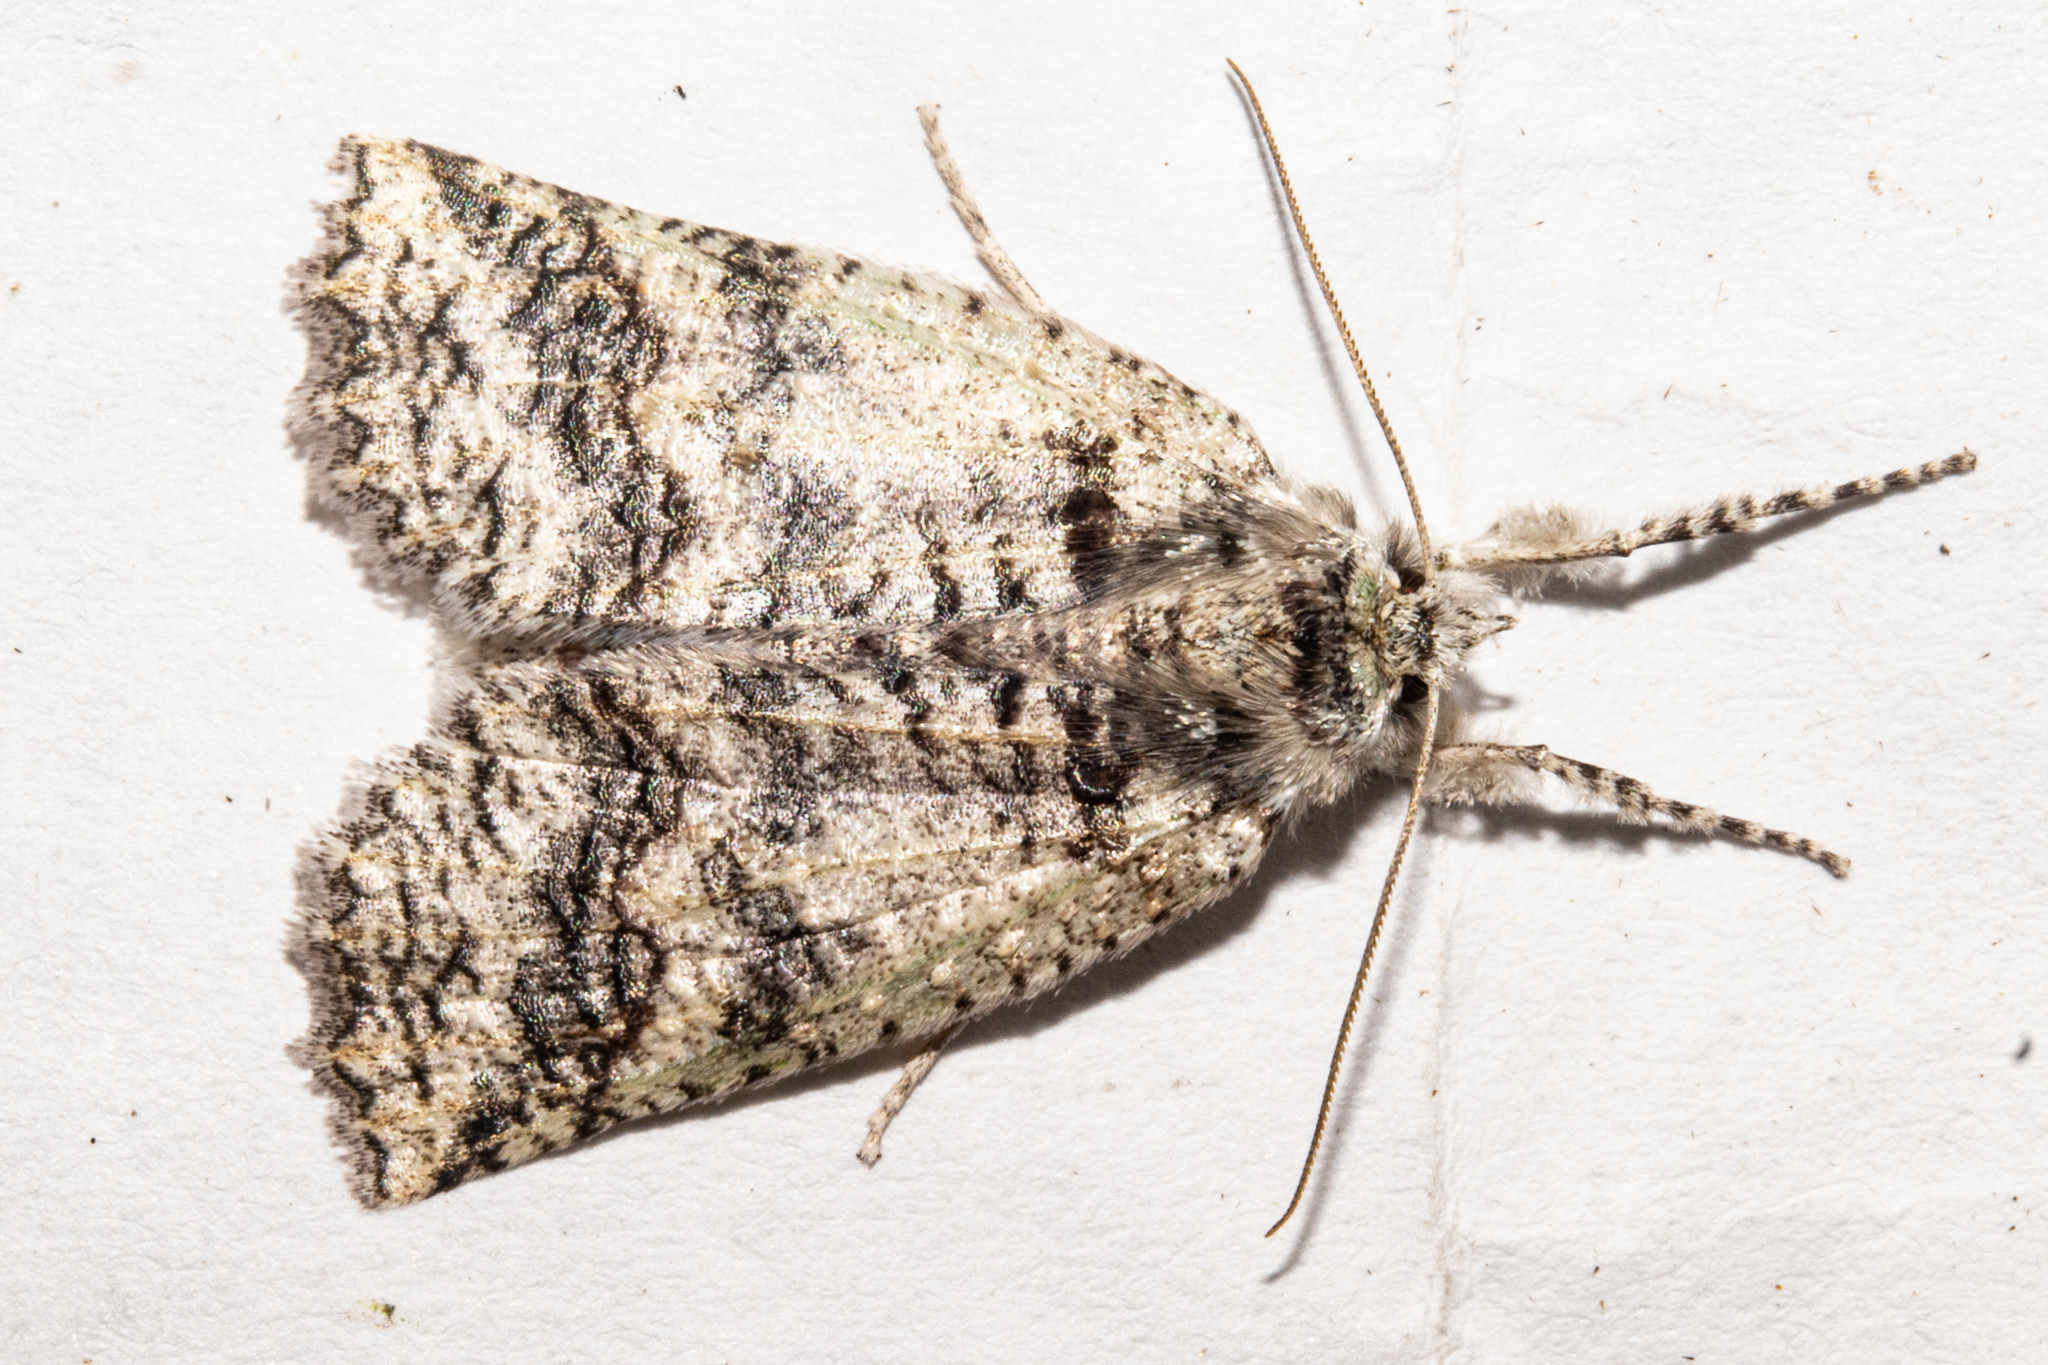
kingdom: Animalia
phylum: Arthropoda
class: Insecta
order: Lepidoptera
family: Geometridae
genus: Declana
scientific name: Declana floccosa
